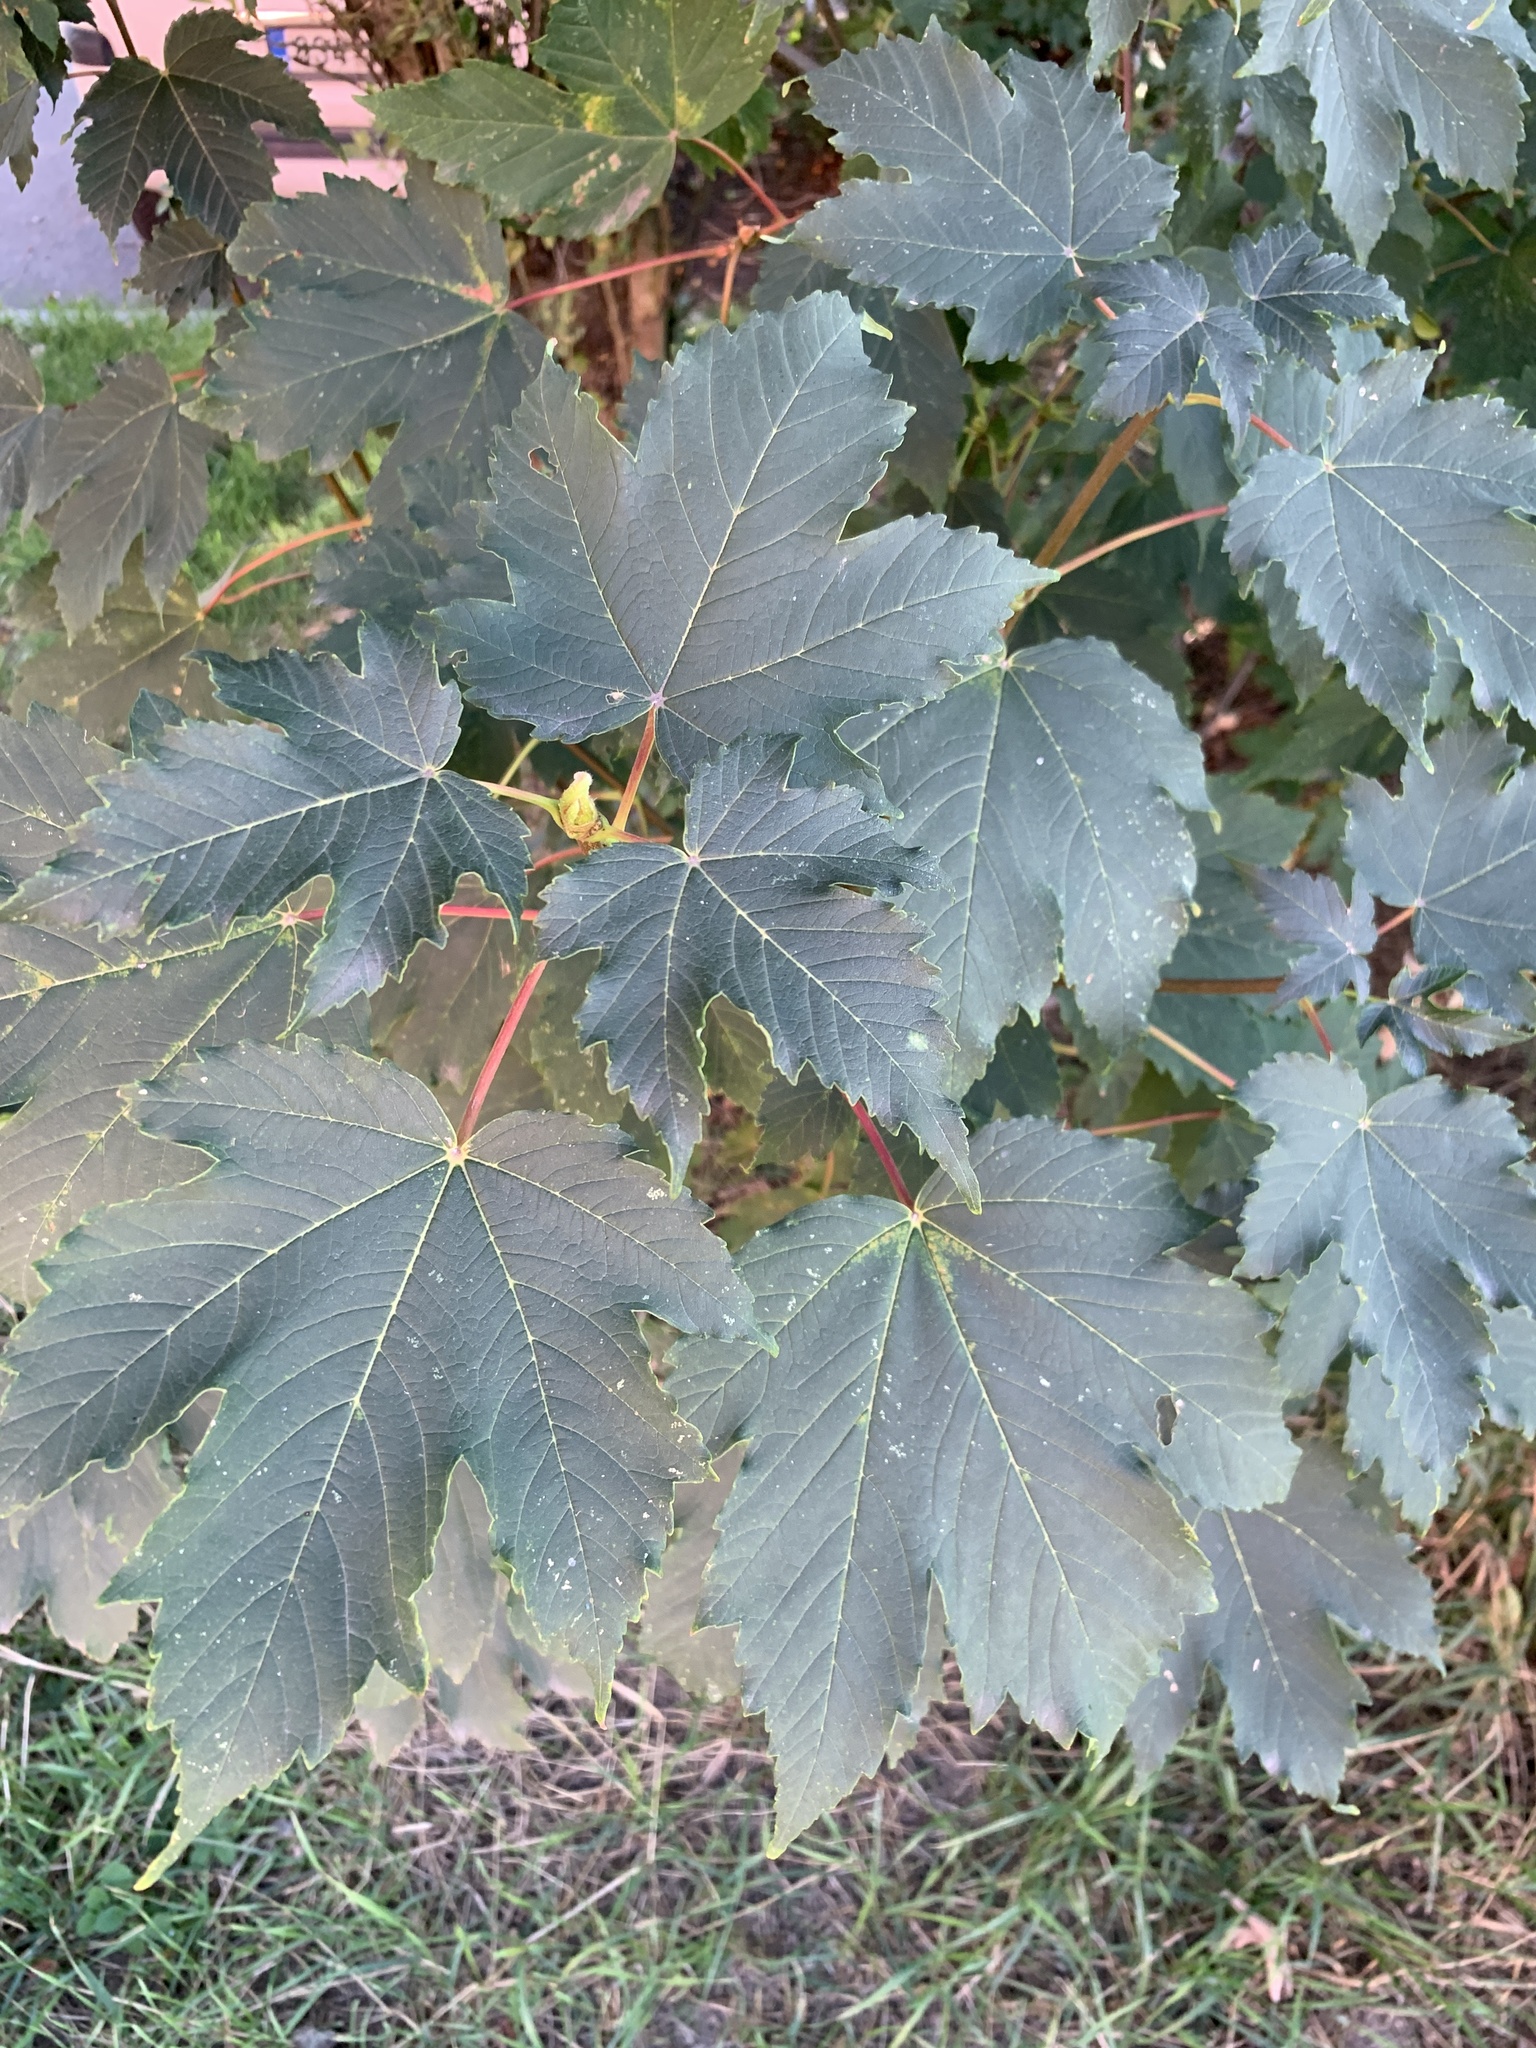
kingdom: Plantae
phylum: Tracheophyta
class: Magnoliopsida
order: Sapindales
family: Sapindaceae
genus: Acer
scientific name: Acer pseudoplatanus
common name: Sycamore
